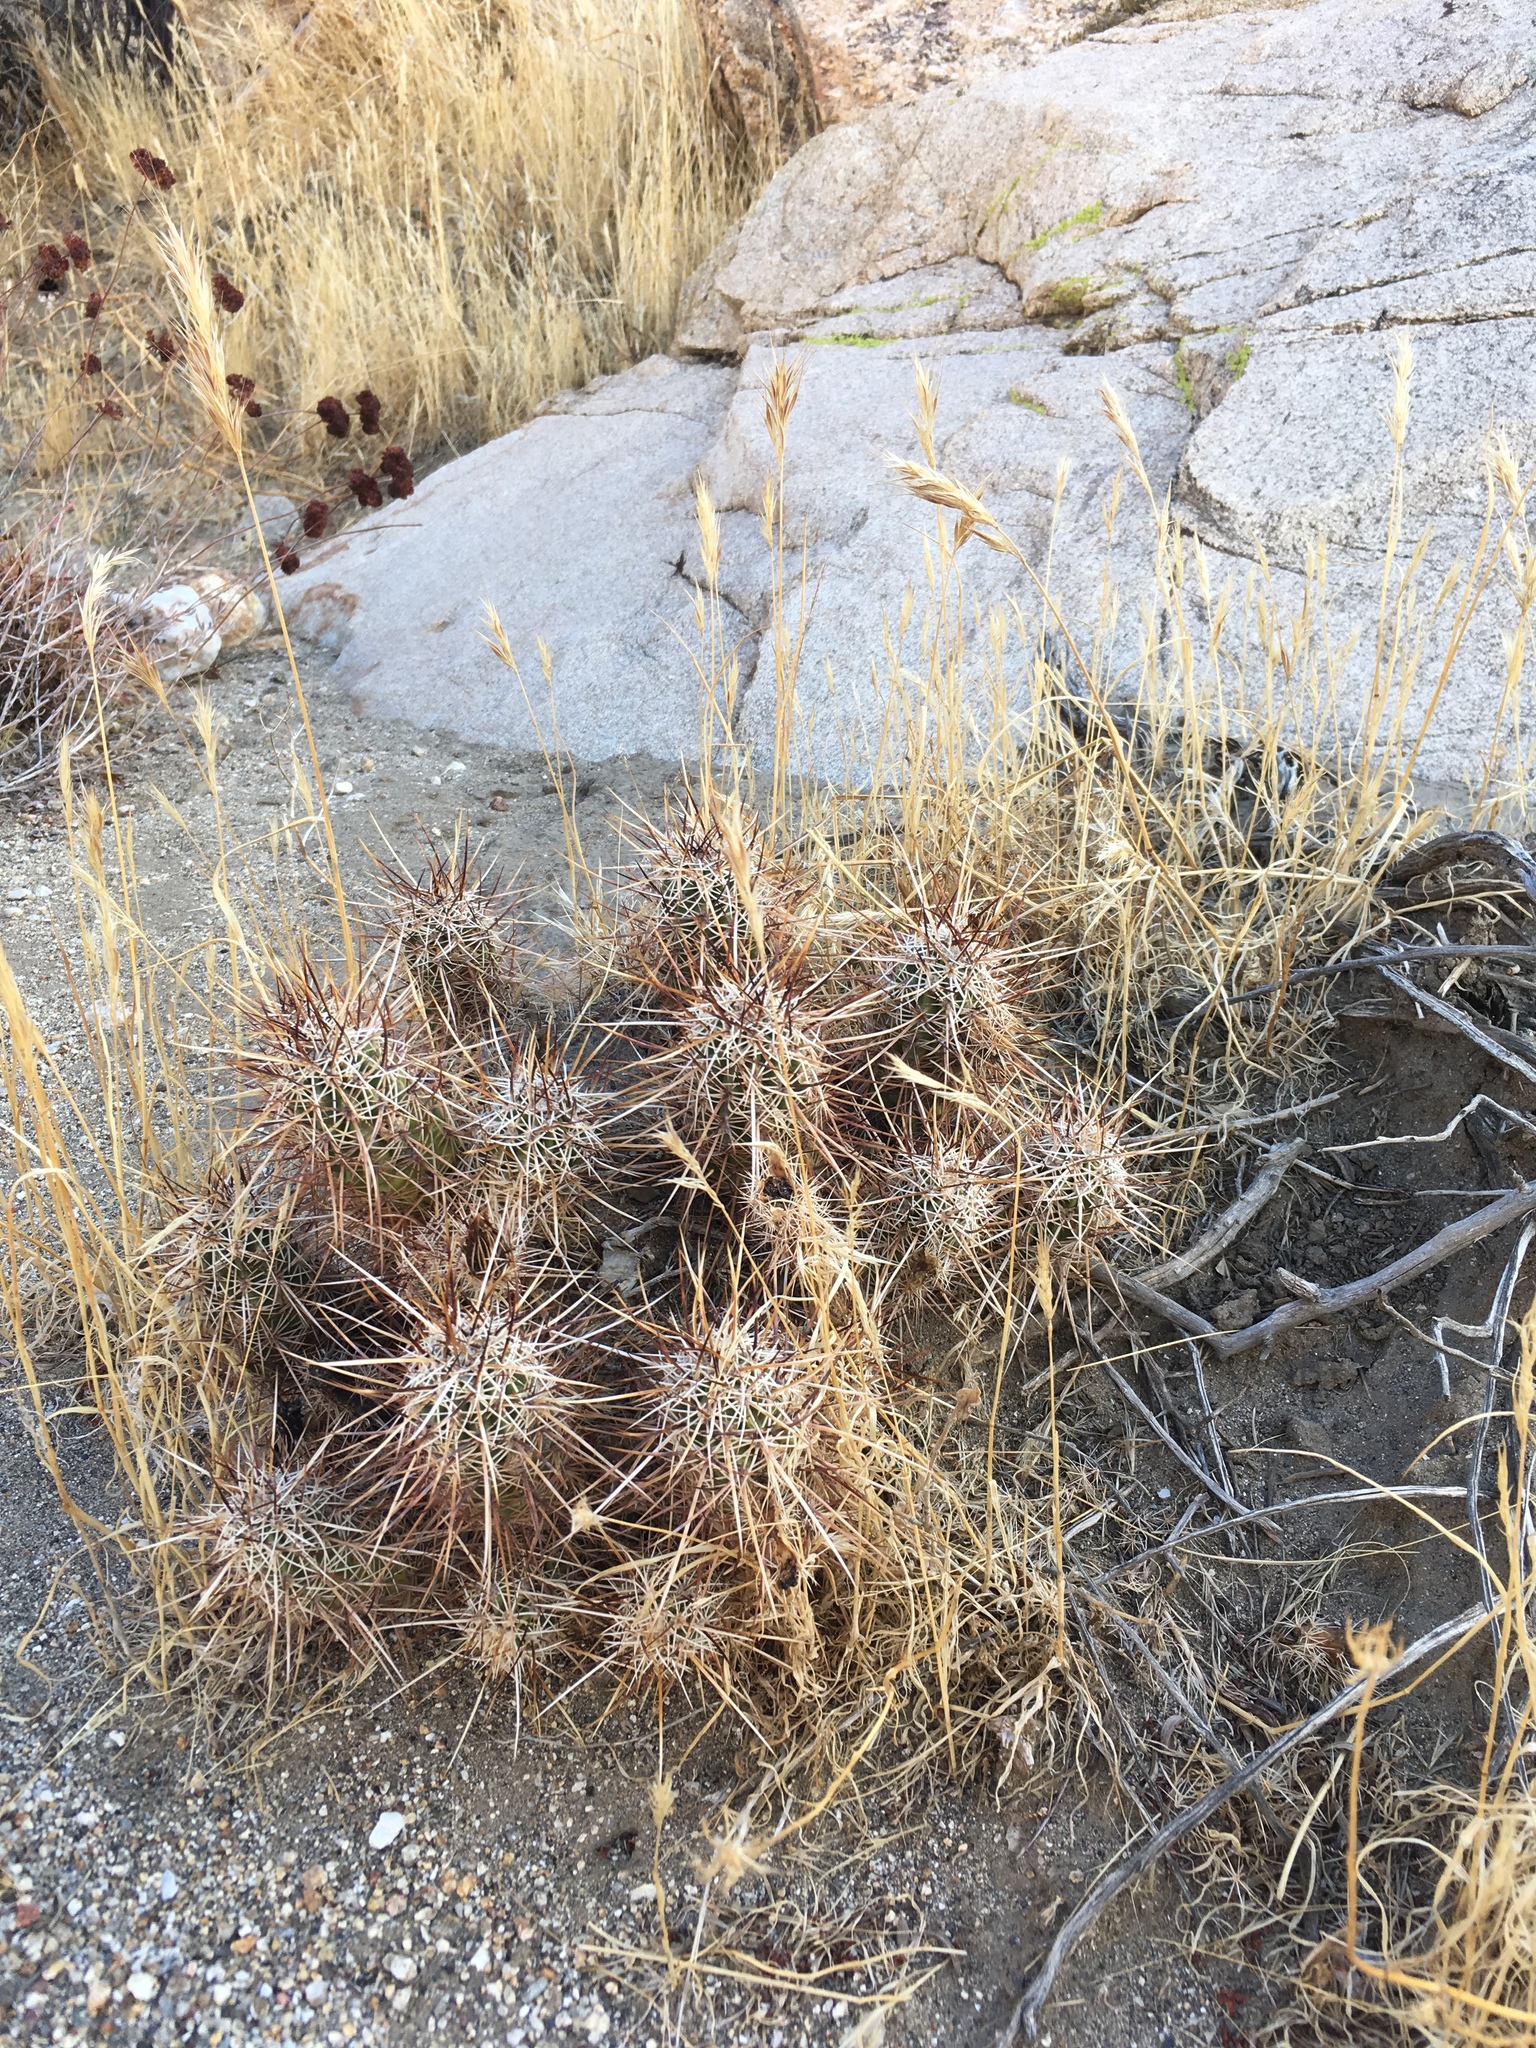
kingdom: Plantae
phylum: Tracheophyta
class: Magnoliopsida
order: Caryophyllales
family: Cactaceae
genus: Echinocereus
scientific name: Echinocereus engelmannii
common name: Engelmann's hedgehog cactus
